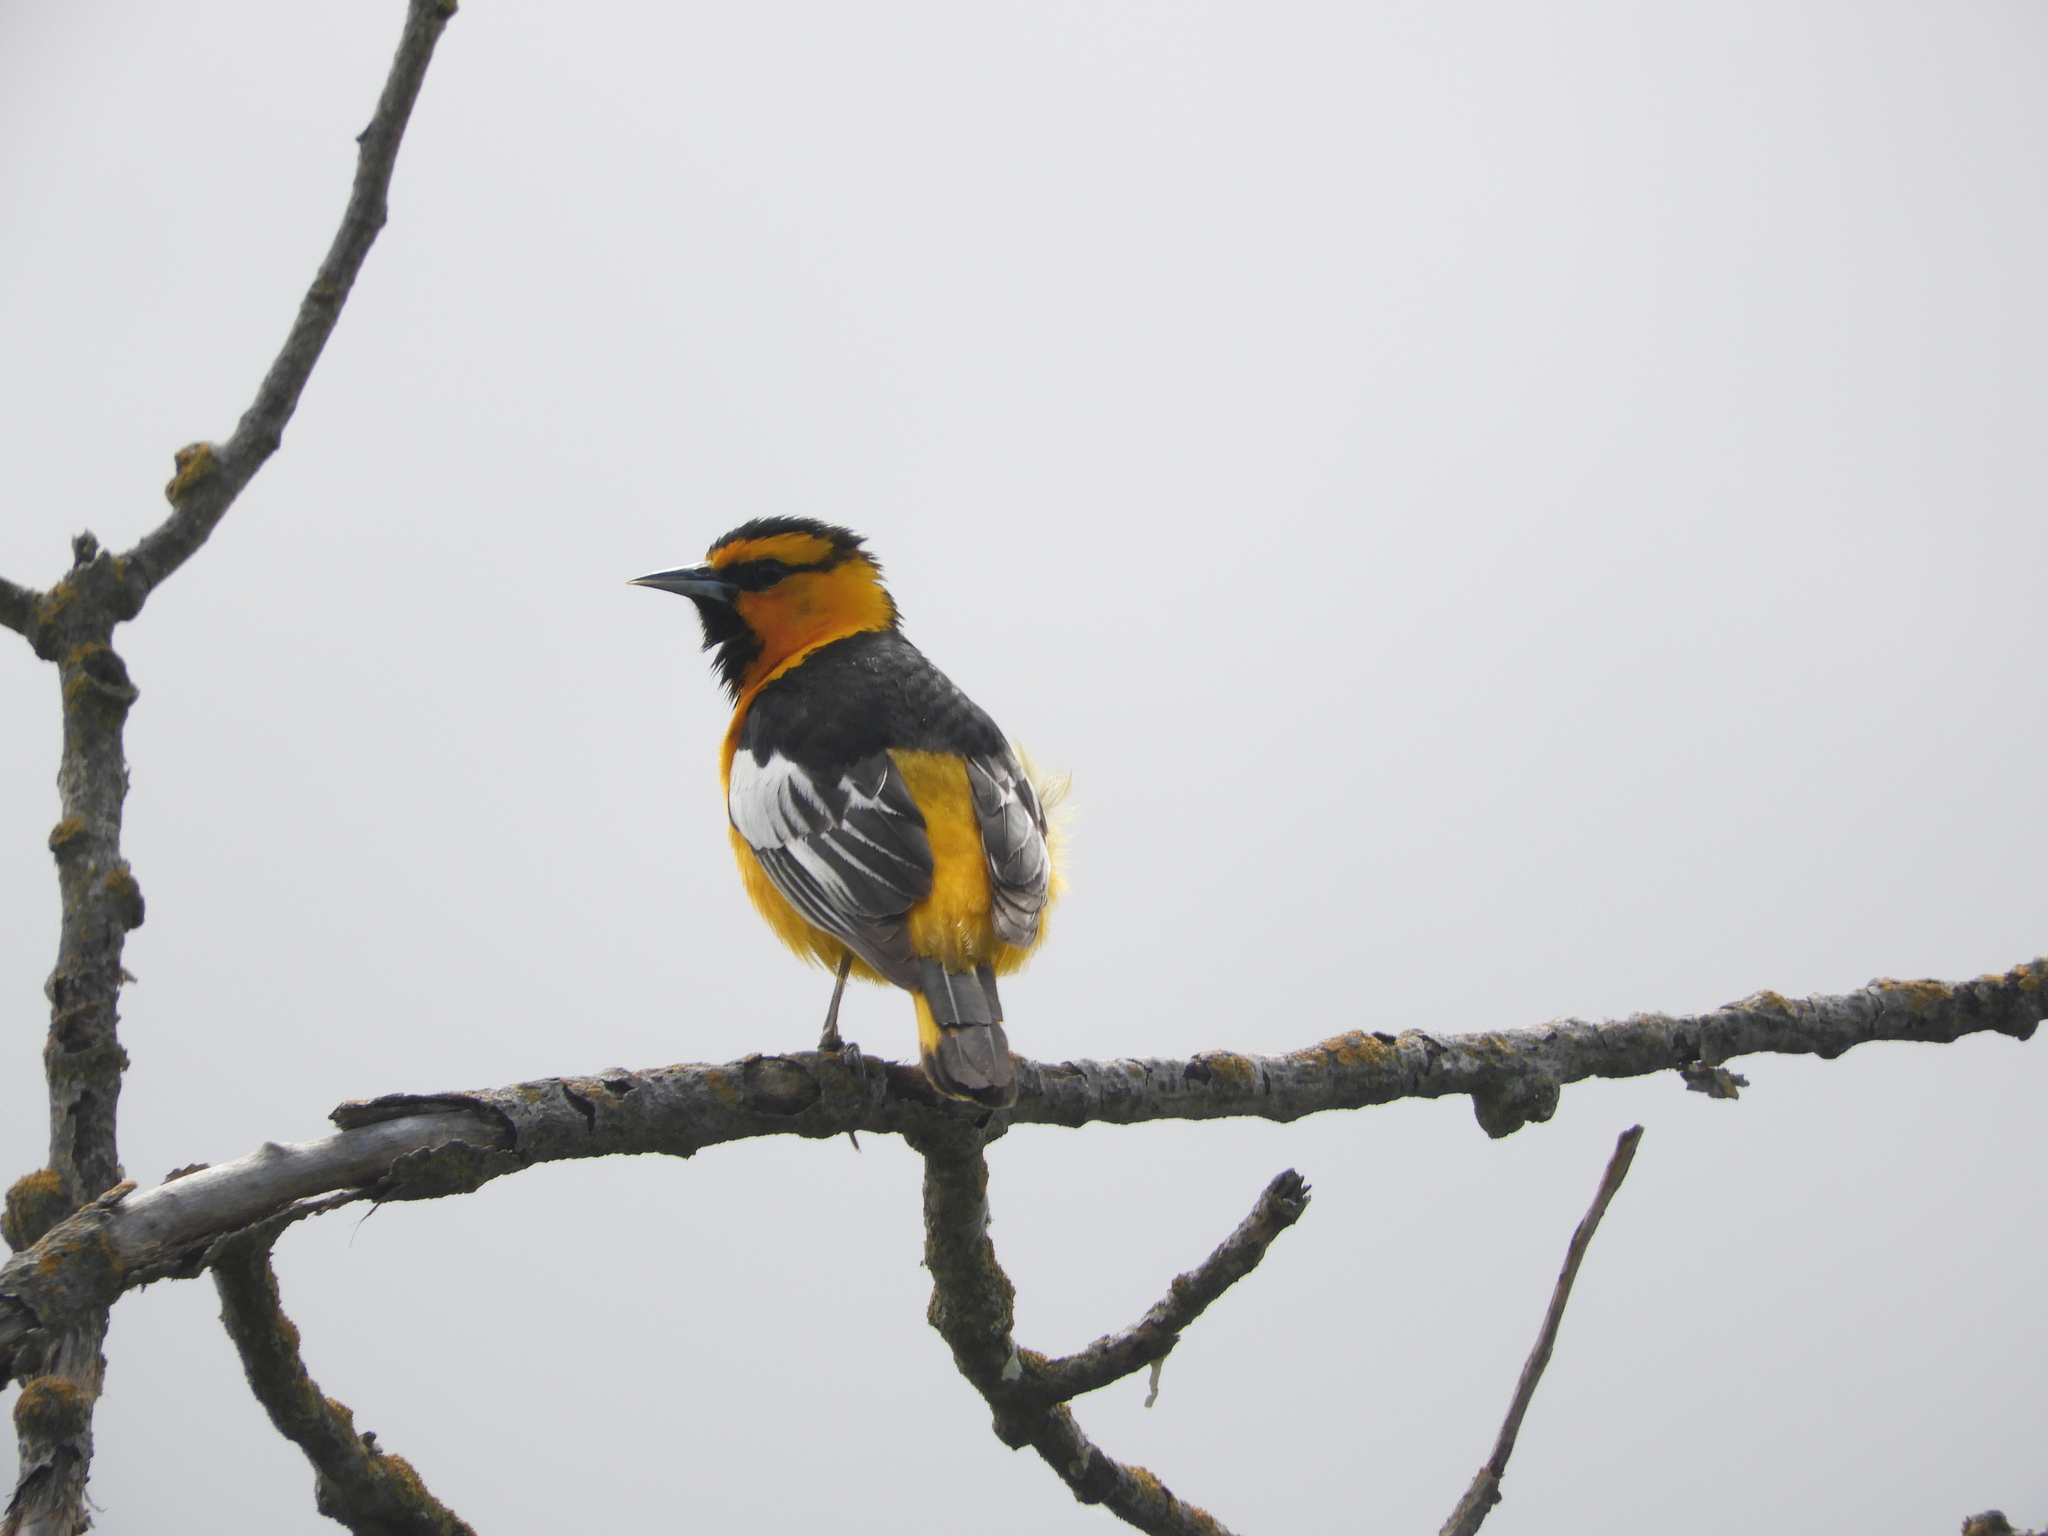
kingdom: Animalia
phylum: Chordata
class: Aves
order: Passeriformes
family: Icteridae
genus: Icterus
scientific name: Icterus bullockii
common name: Bullock's oriole
